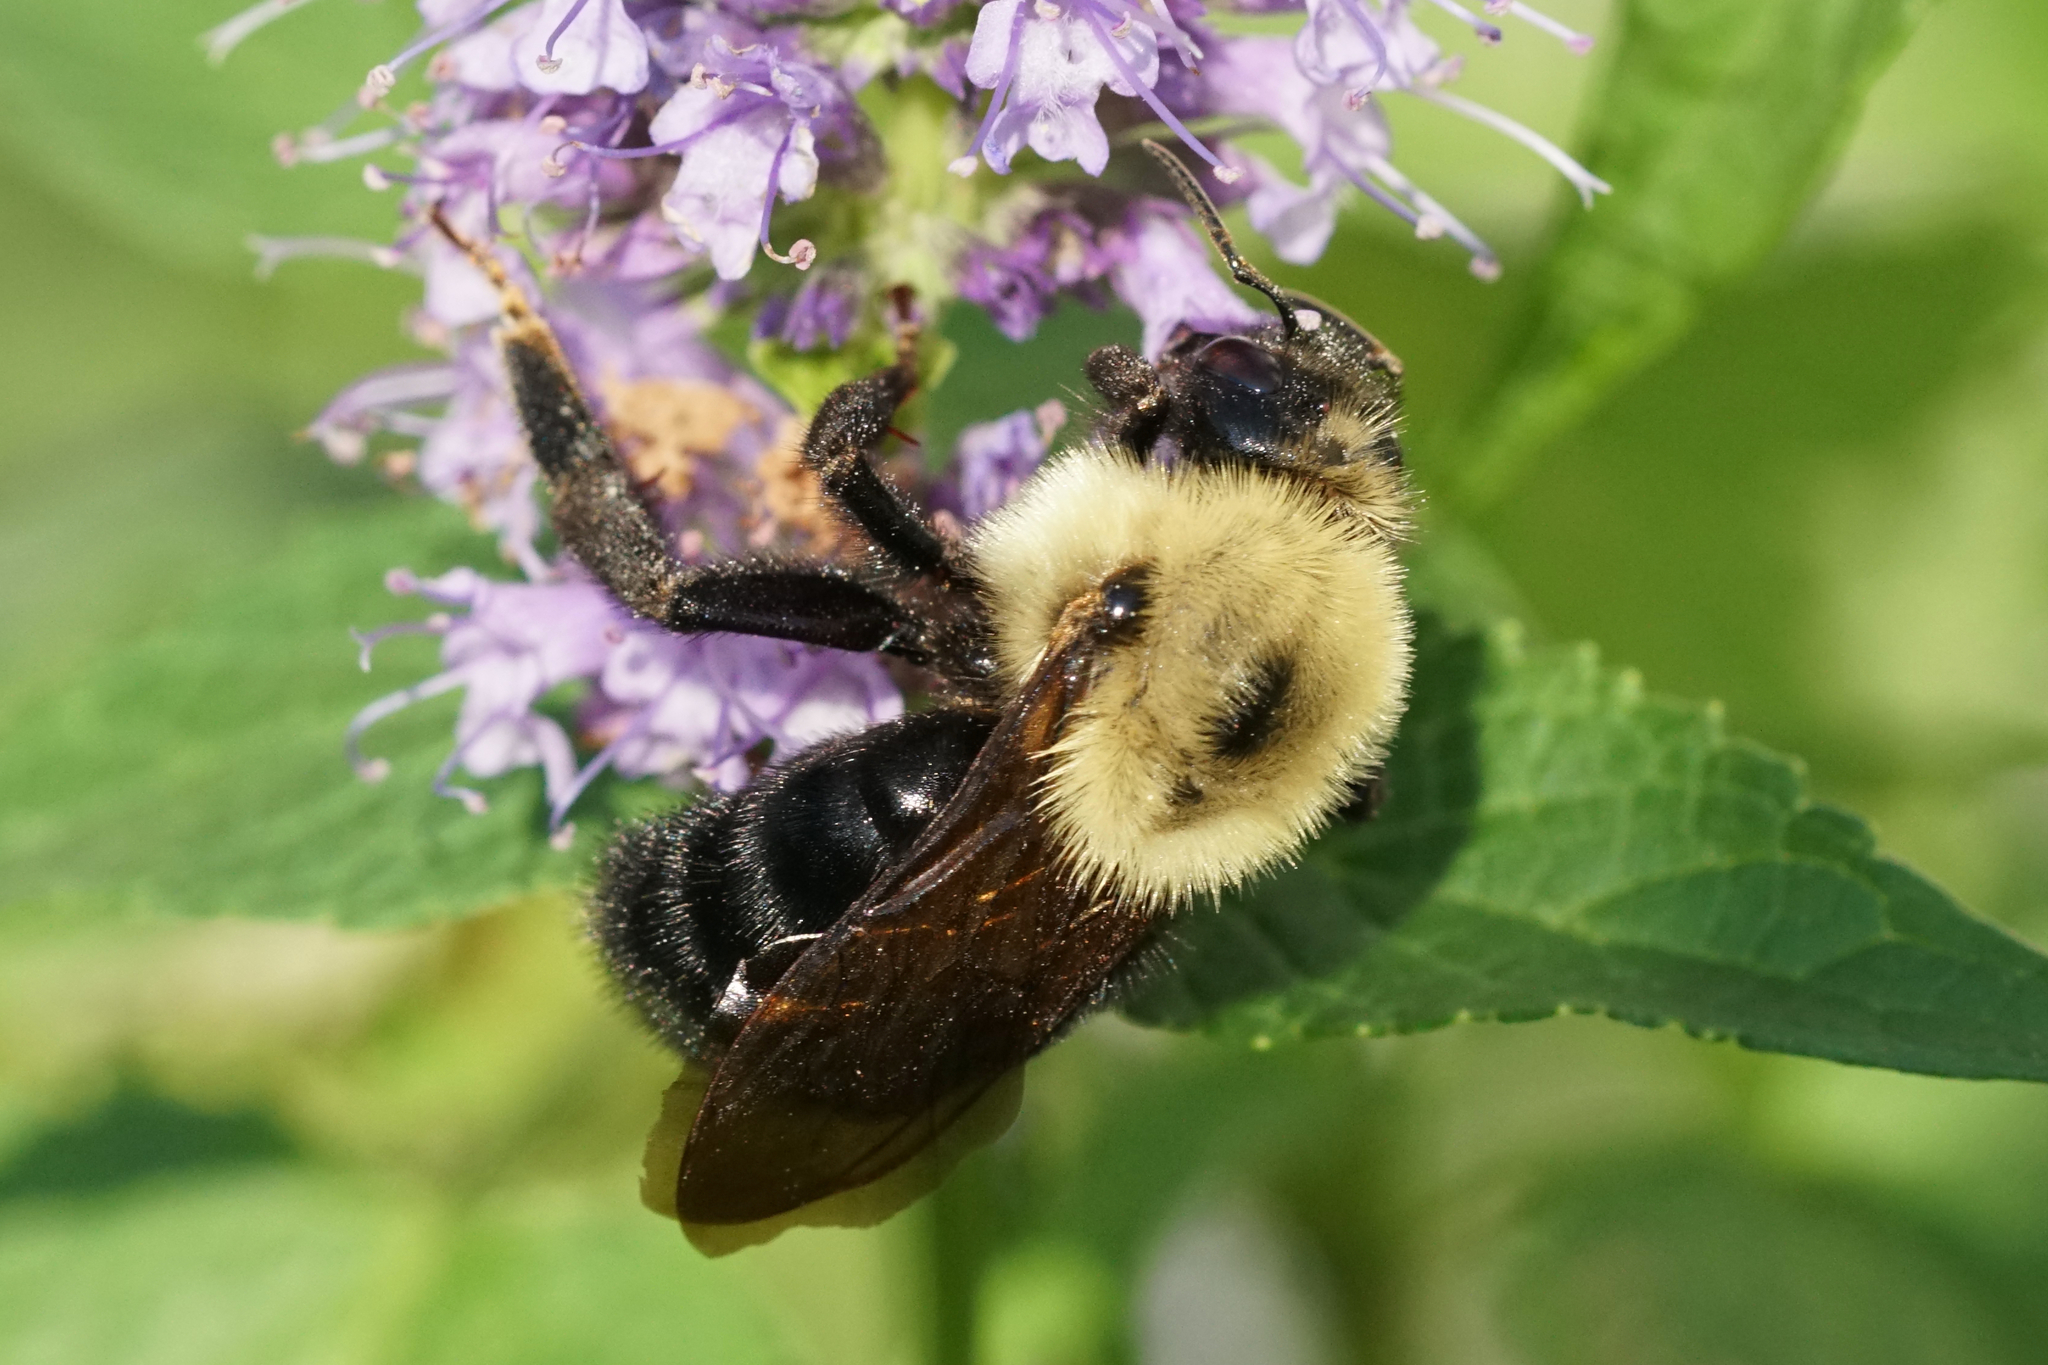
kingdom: Animalia
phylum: Arthropoda
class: Insecta
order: Hymenoptera
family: Apidae
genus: Bombus
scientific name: Bombus citrinus
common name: Lemon cuckoo bumble bee
